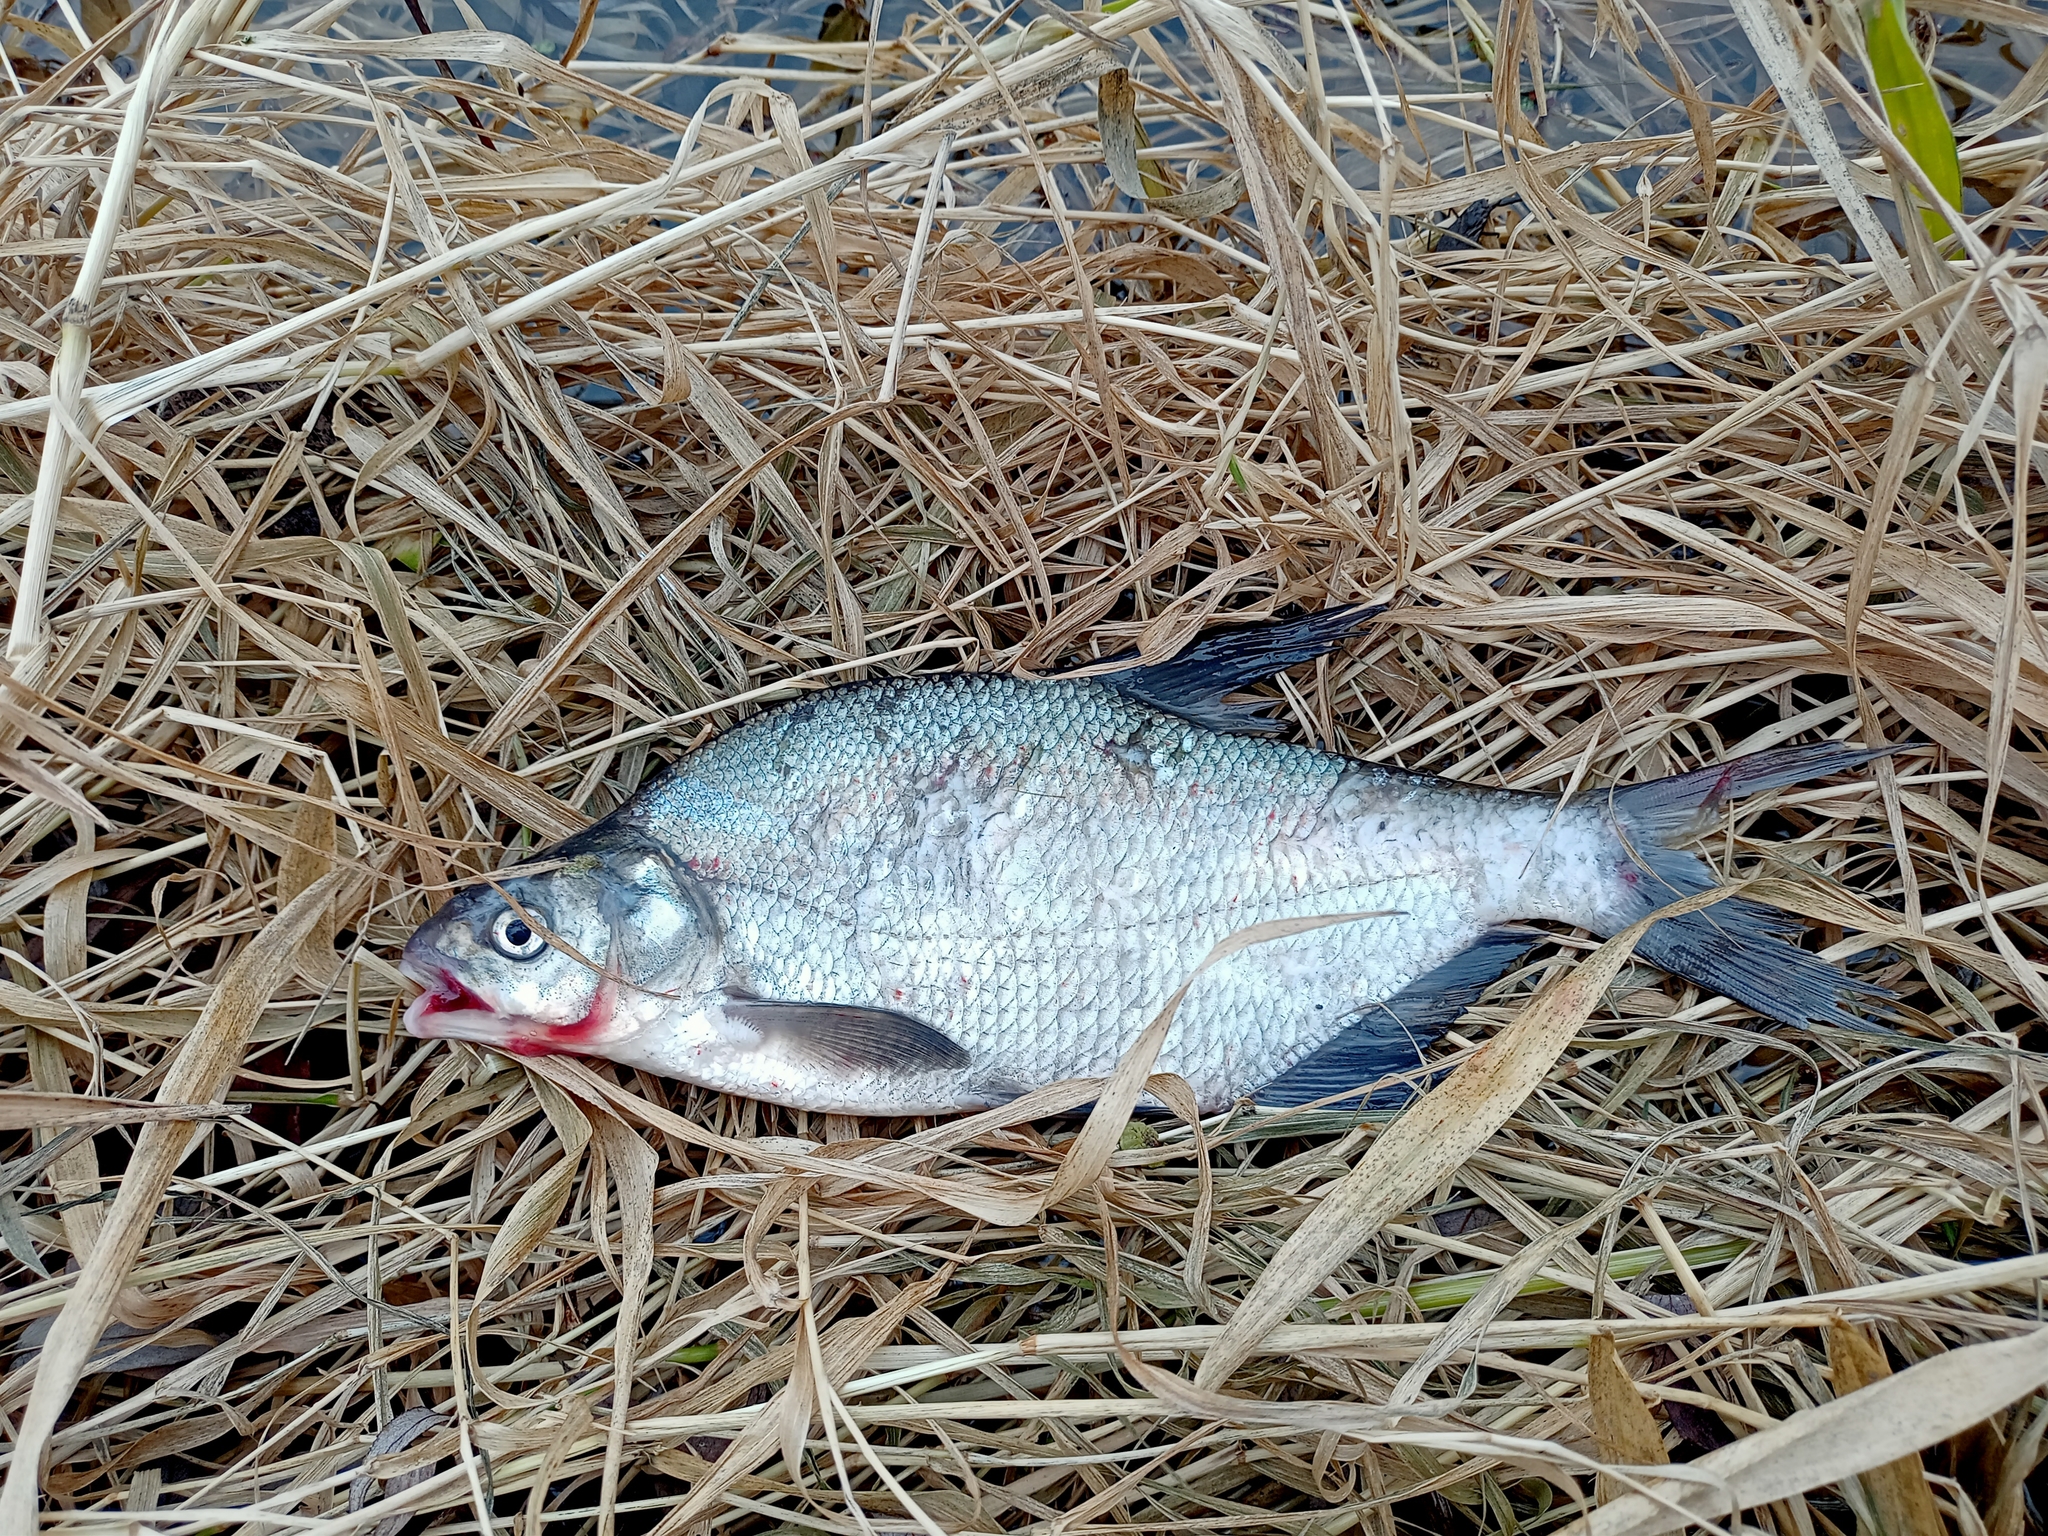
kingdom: Animalia
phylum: Chordata
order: Cypriniformes
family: Cyprinidae
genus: Abramis
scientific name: Abramis brama
